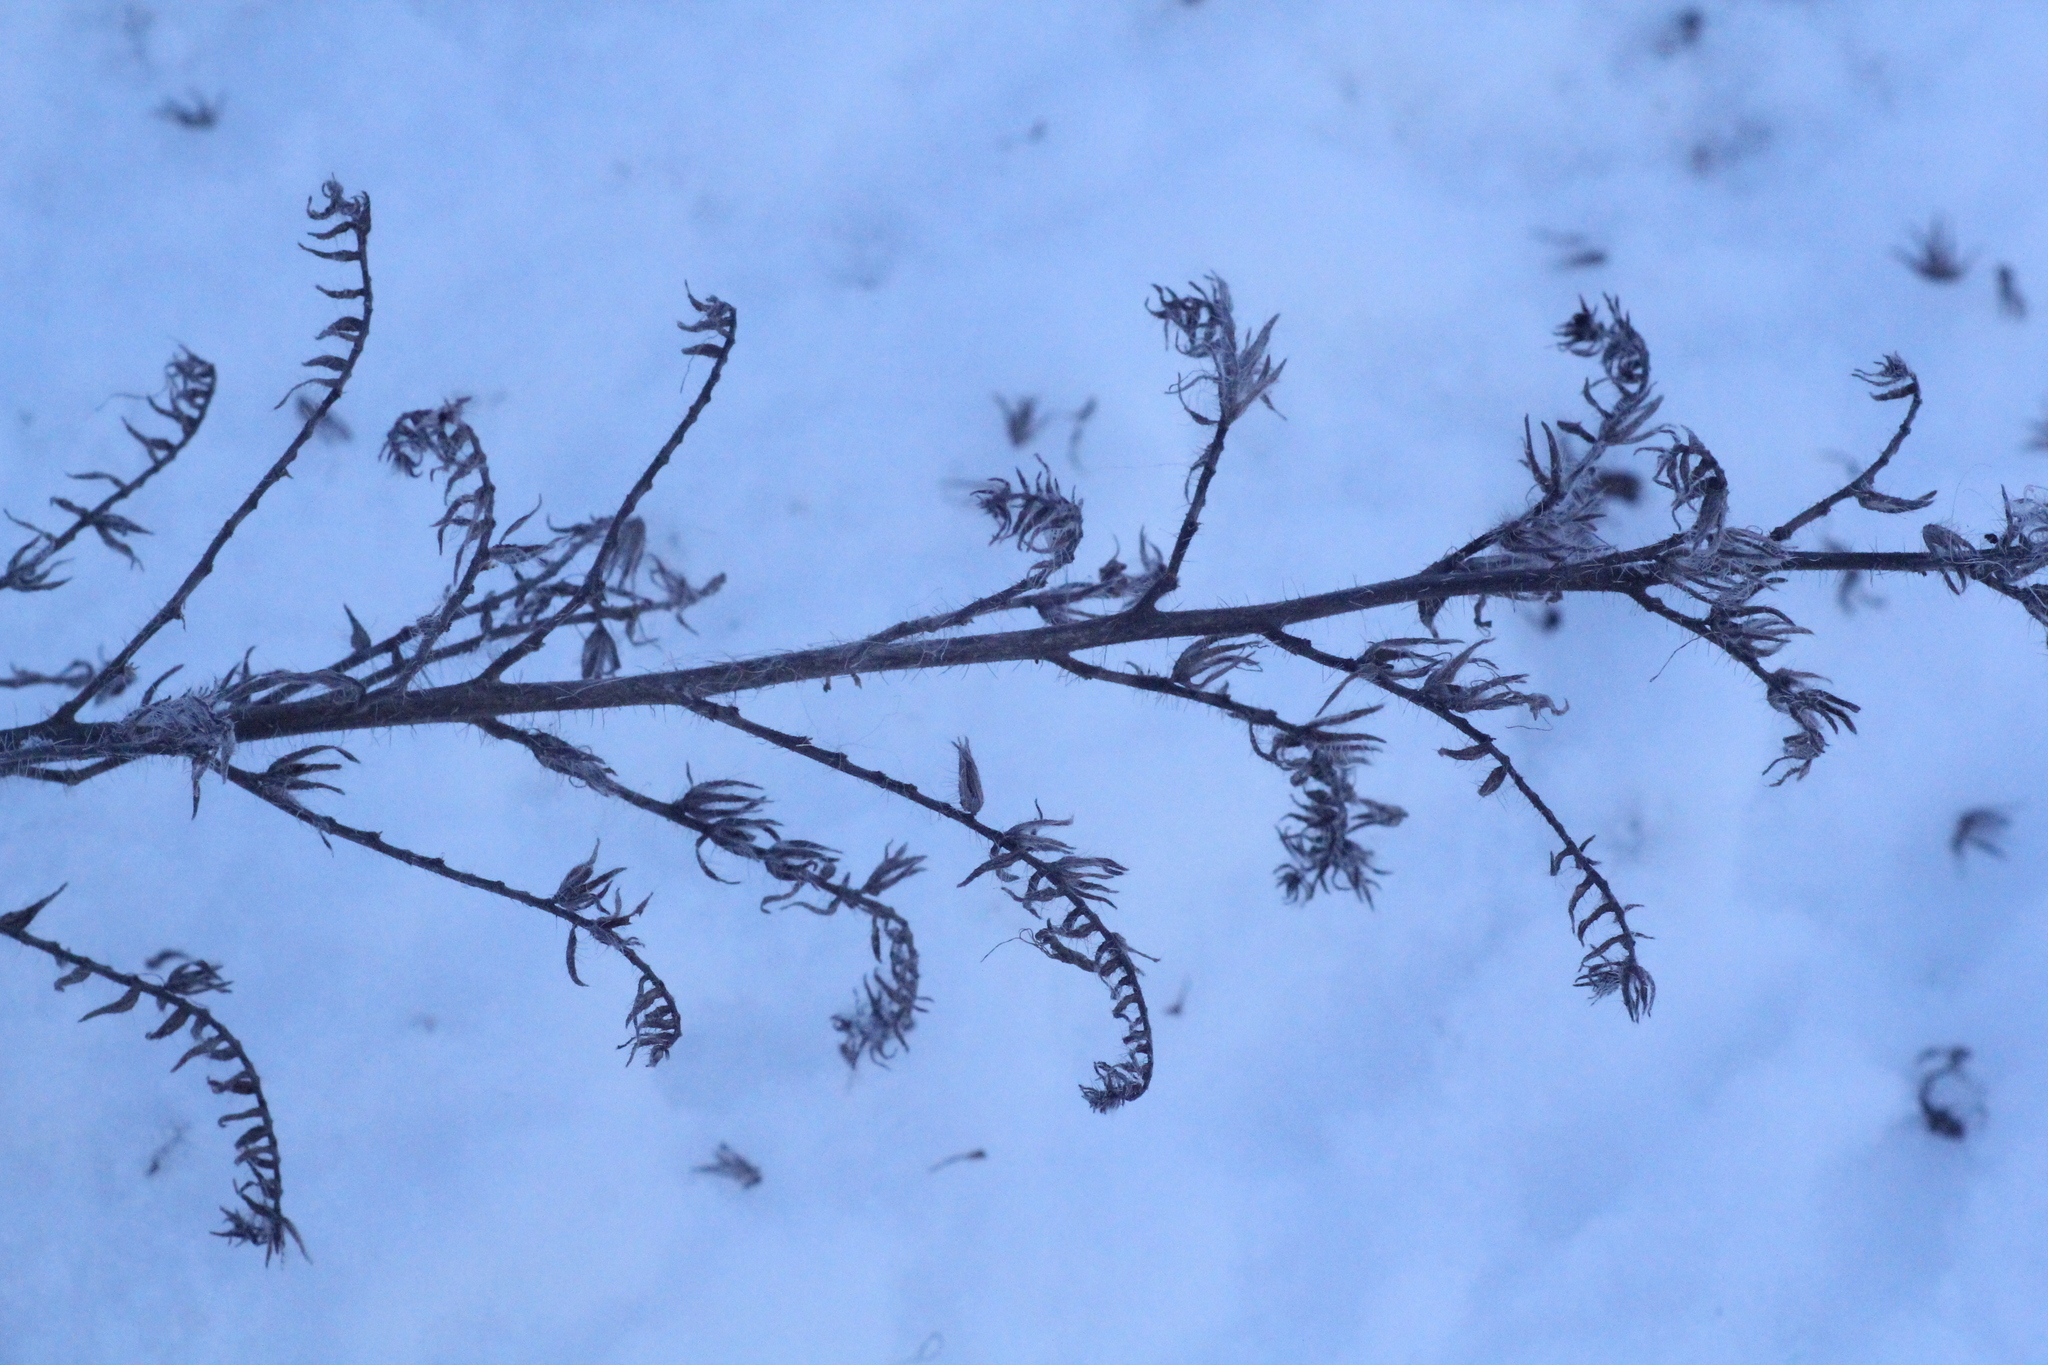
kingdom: Plantae
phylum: Tracheophyta
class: Magnoliopsida
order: Boraginales
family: Boraginaceae
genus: Echium
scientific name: Echium vulgare
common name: Common viper's bugloss
